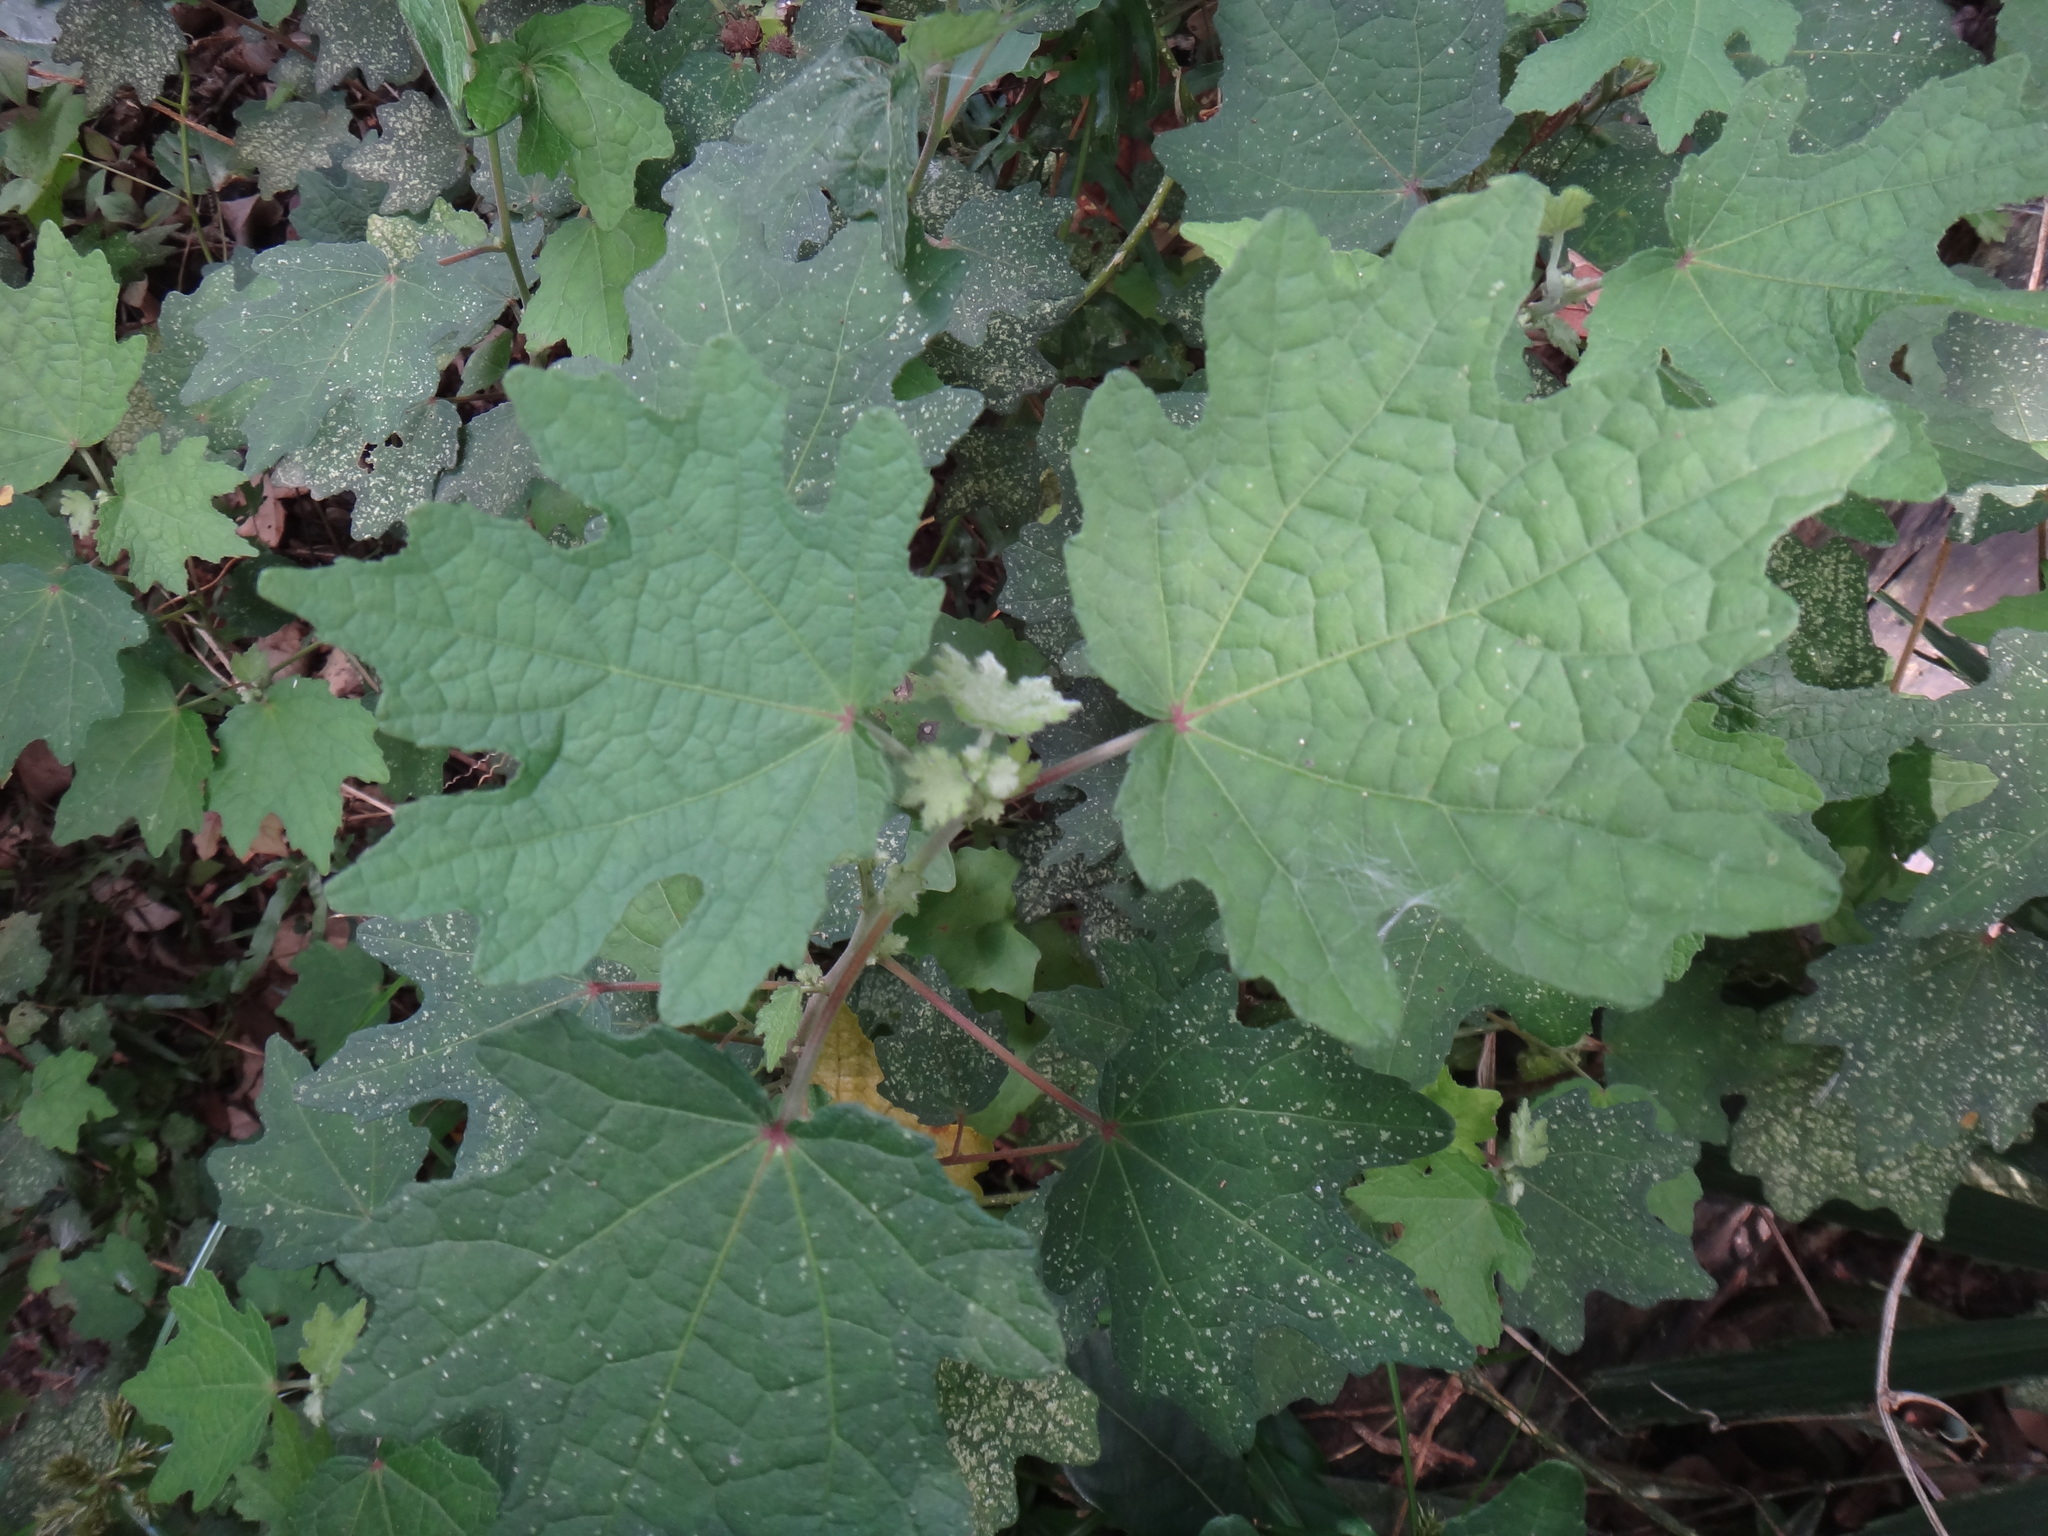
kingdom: Plantae
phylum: Tracheophyta
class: Magnoliopsida
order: Malvales
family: Malvaceae
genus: Urena
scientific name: Urena procumbens
